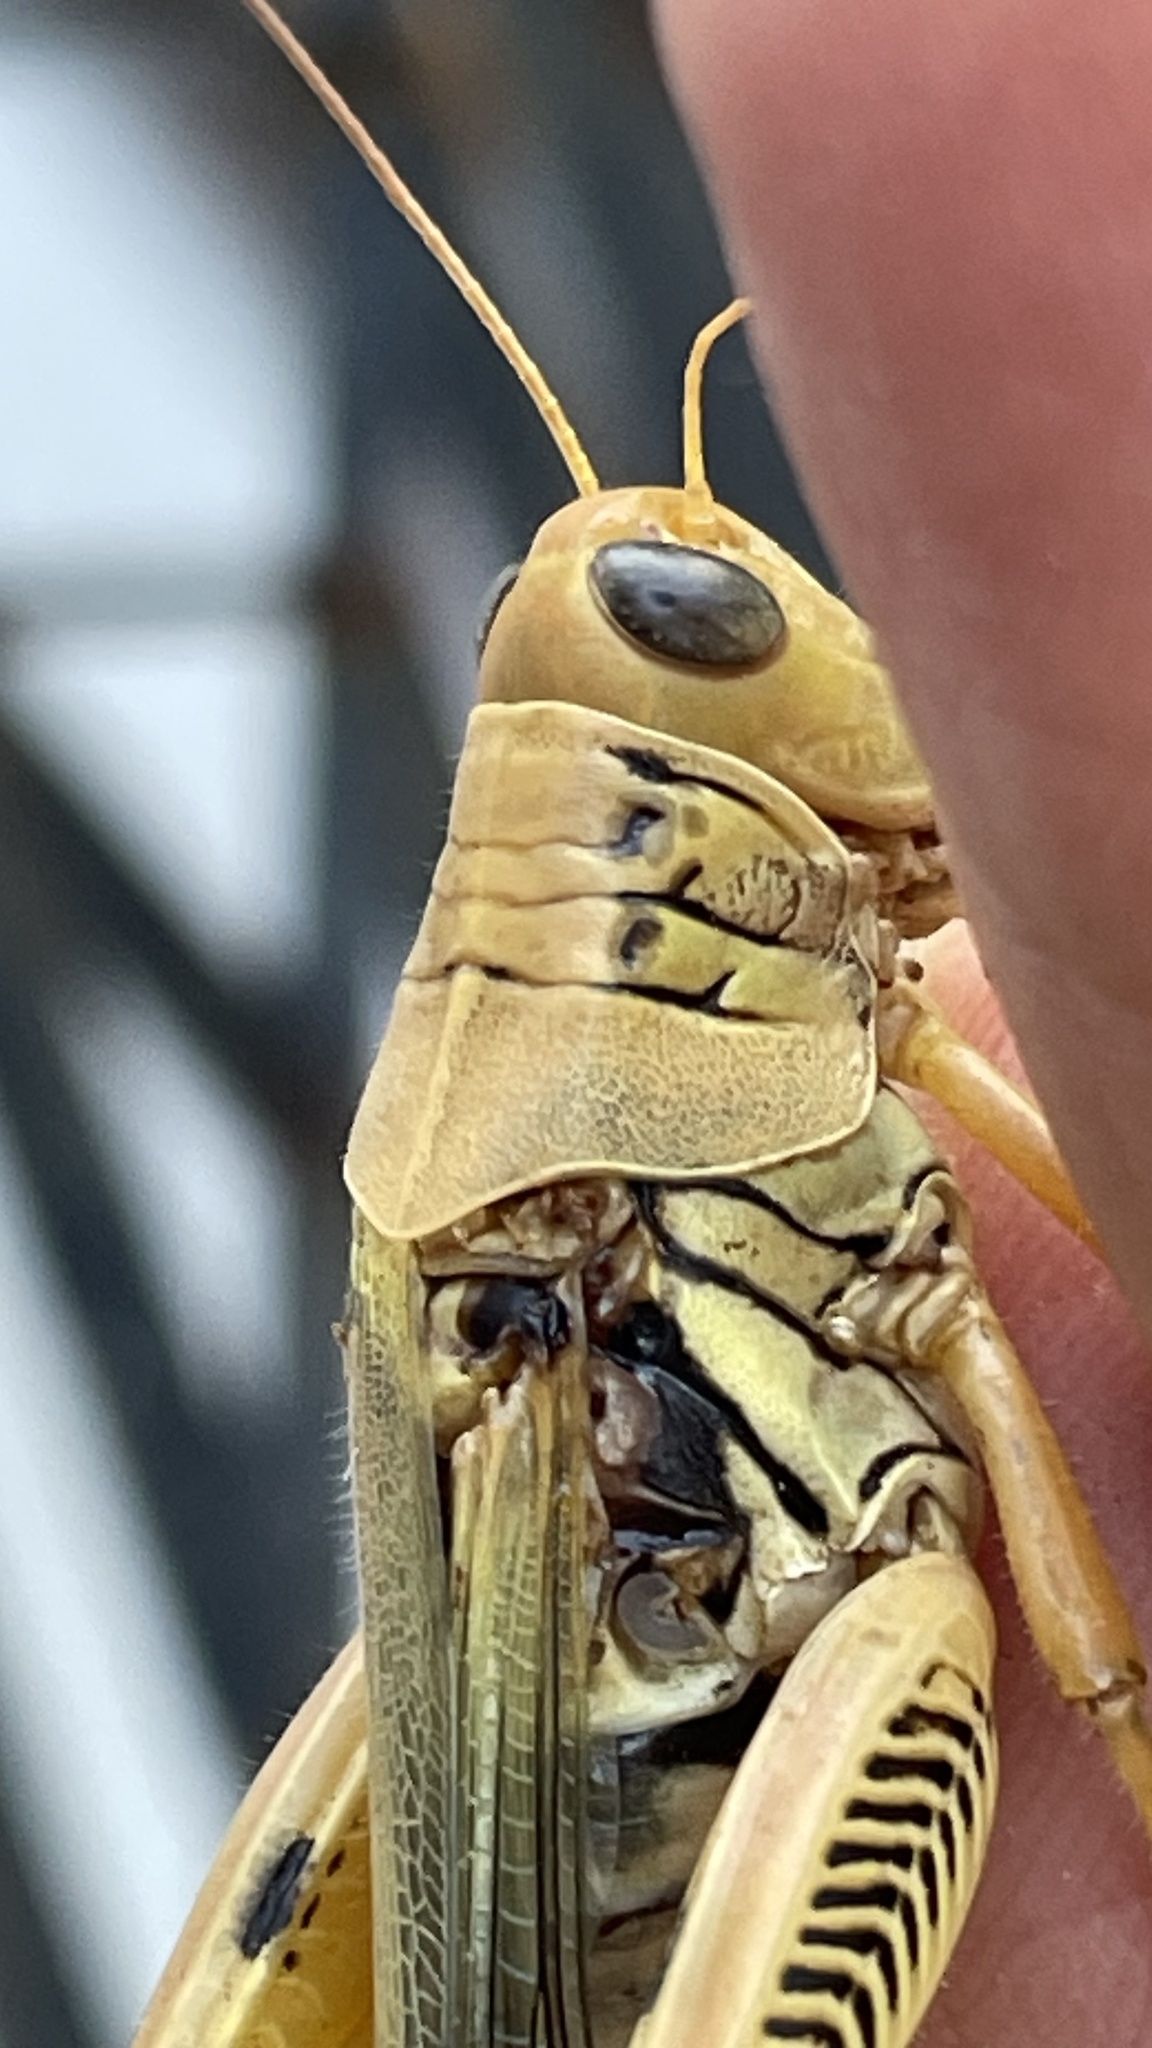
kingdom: Animalia
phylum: Arthropoda
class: Insecta
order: Orthoptera
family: Acrididae
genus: Melanoplus
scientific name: Melanoplus differentialis
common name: Differential grasshopper
